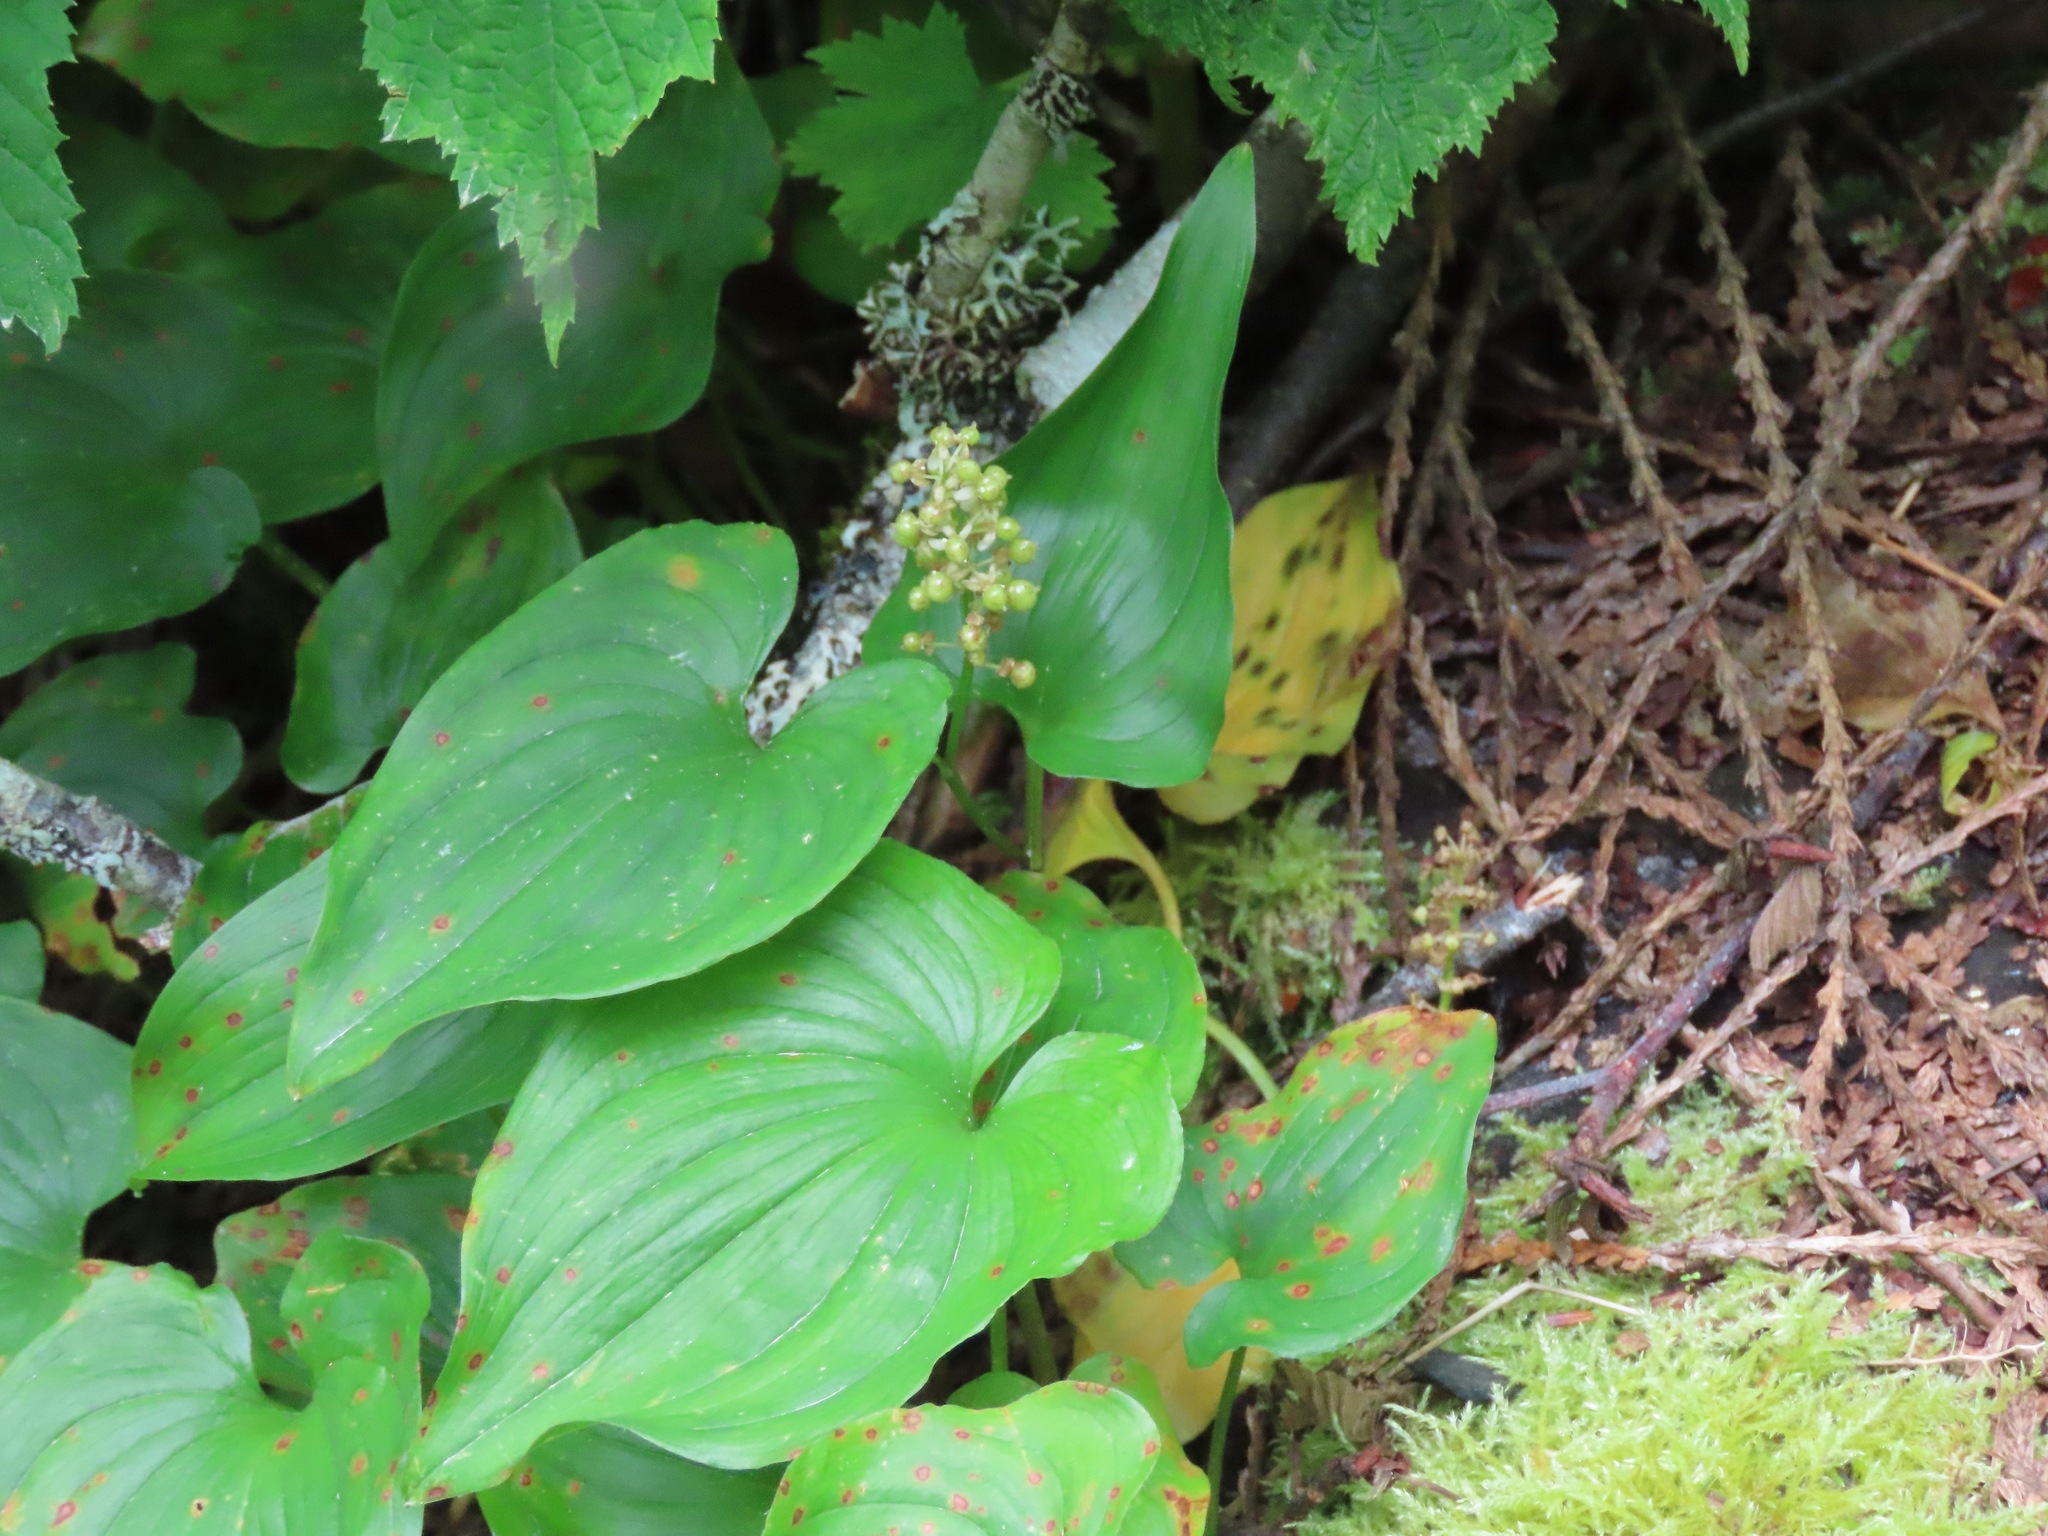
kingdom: Plantae
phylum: Tracheophyta
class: Liliopsida
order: Asparagales
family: Asparagaceae
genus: Maianthemum
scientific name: Maianthemum dilatatum
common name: False lily-of-the-valley
